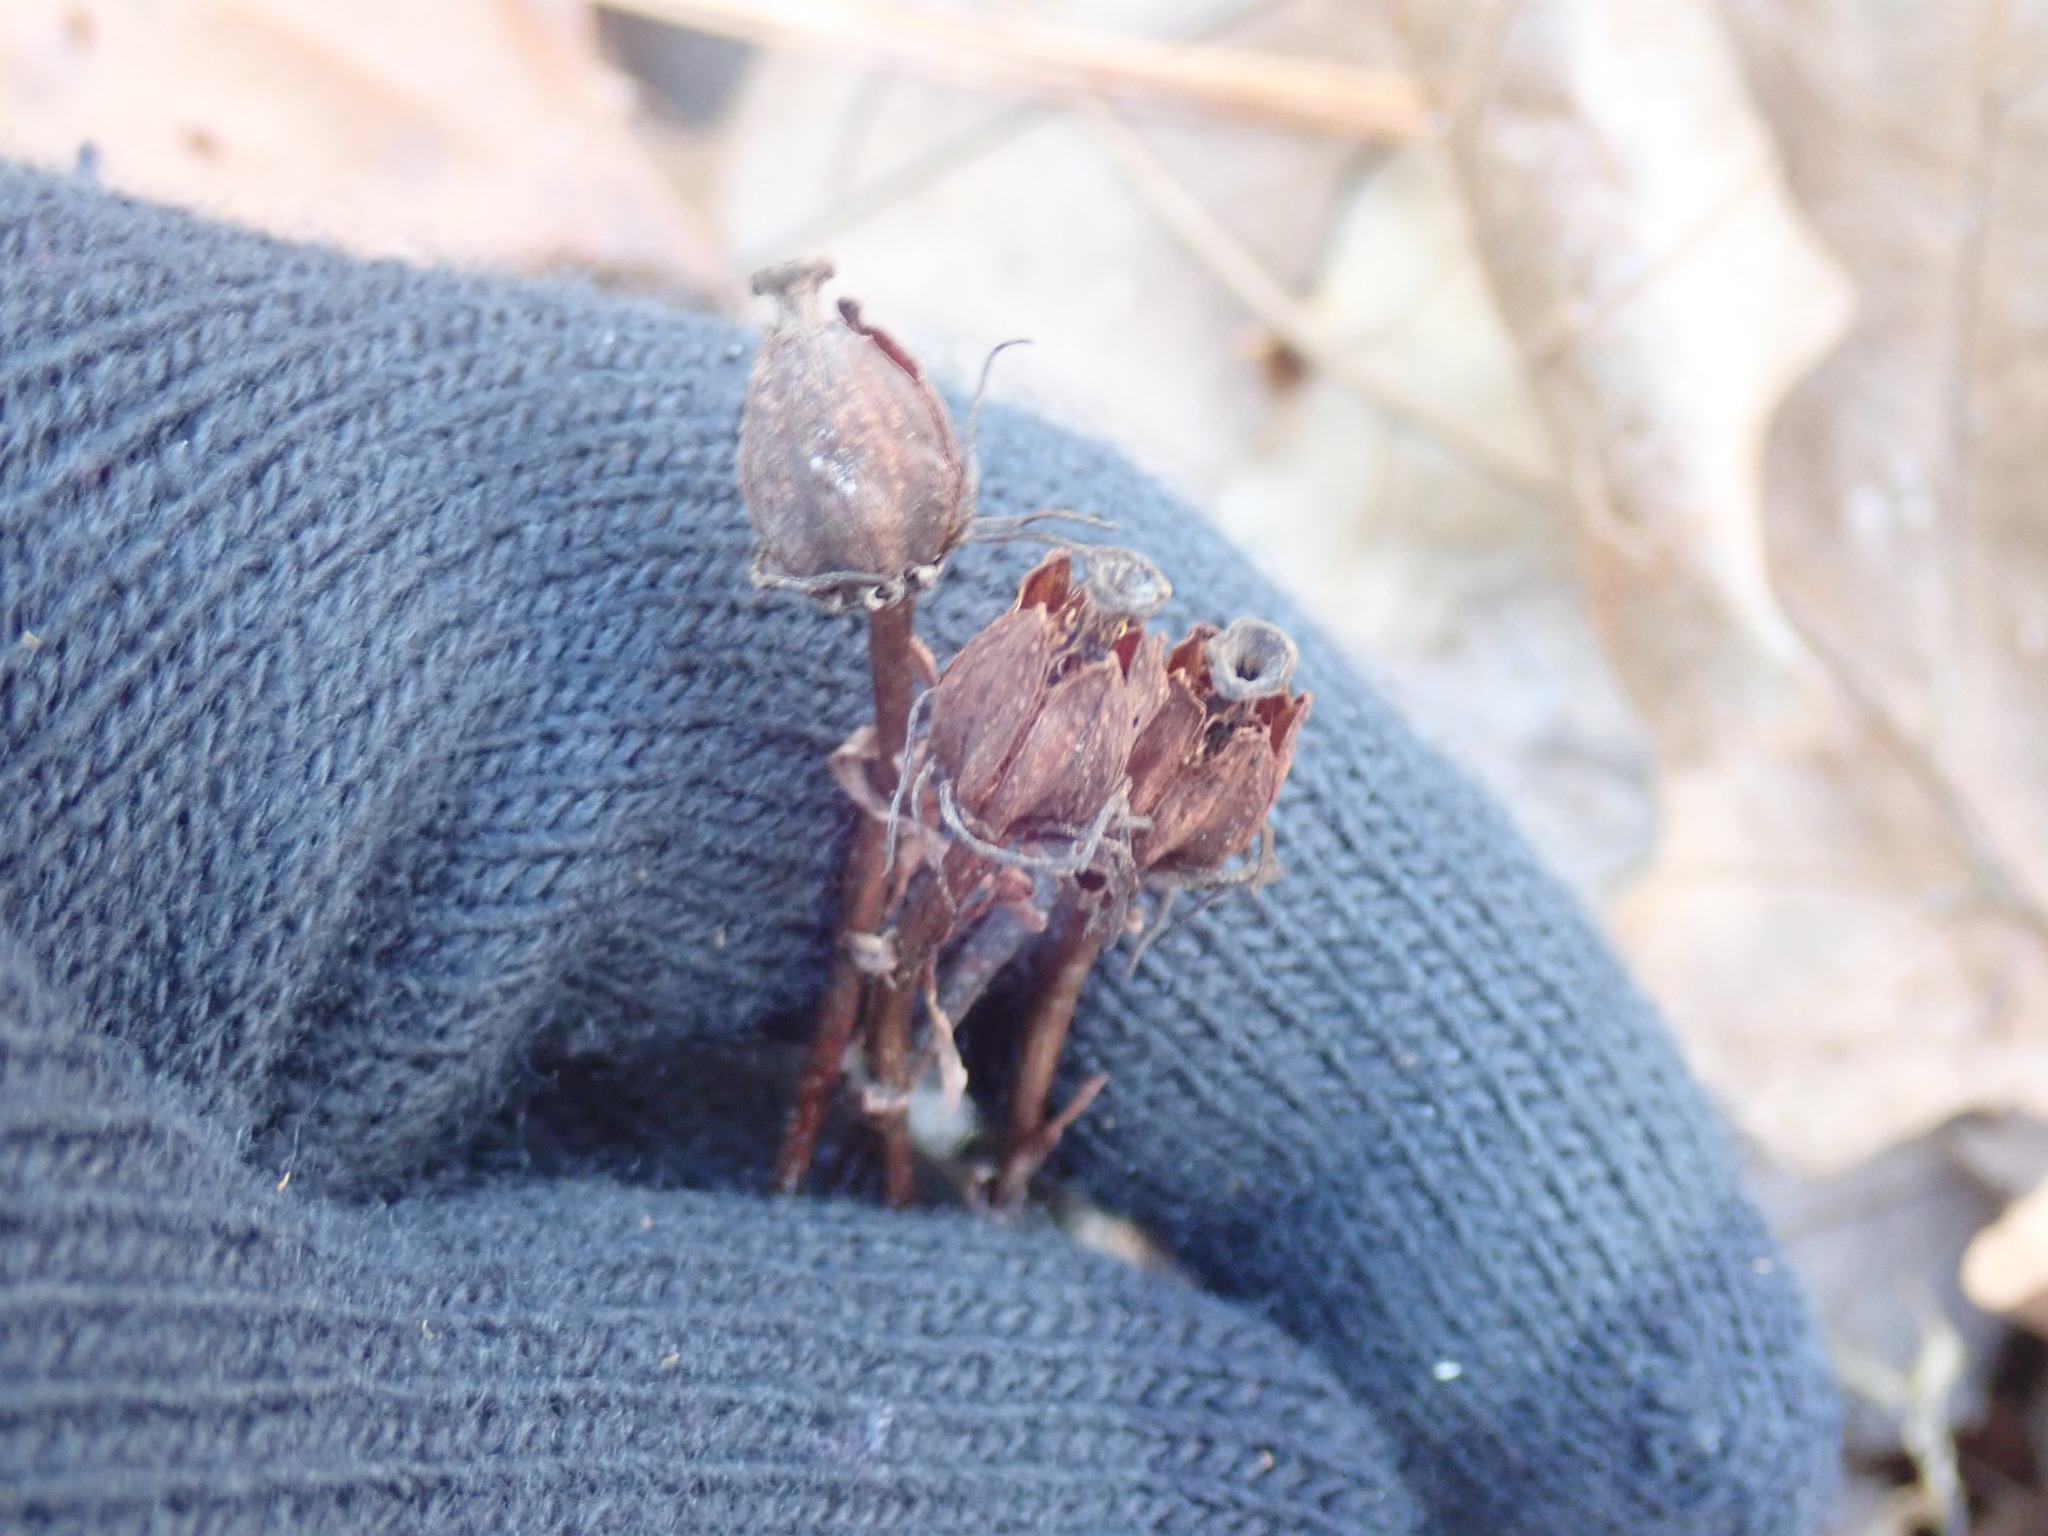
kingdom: Plantae
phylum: Tracheophyta
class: Magnoliopsida
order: Ericales
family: Ericaceae
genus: Monotropa
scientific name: Monotropa uniflora
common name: Convulsion root
